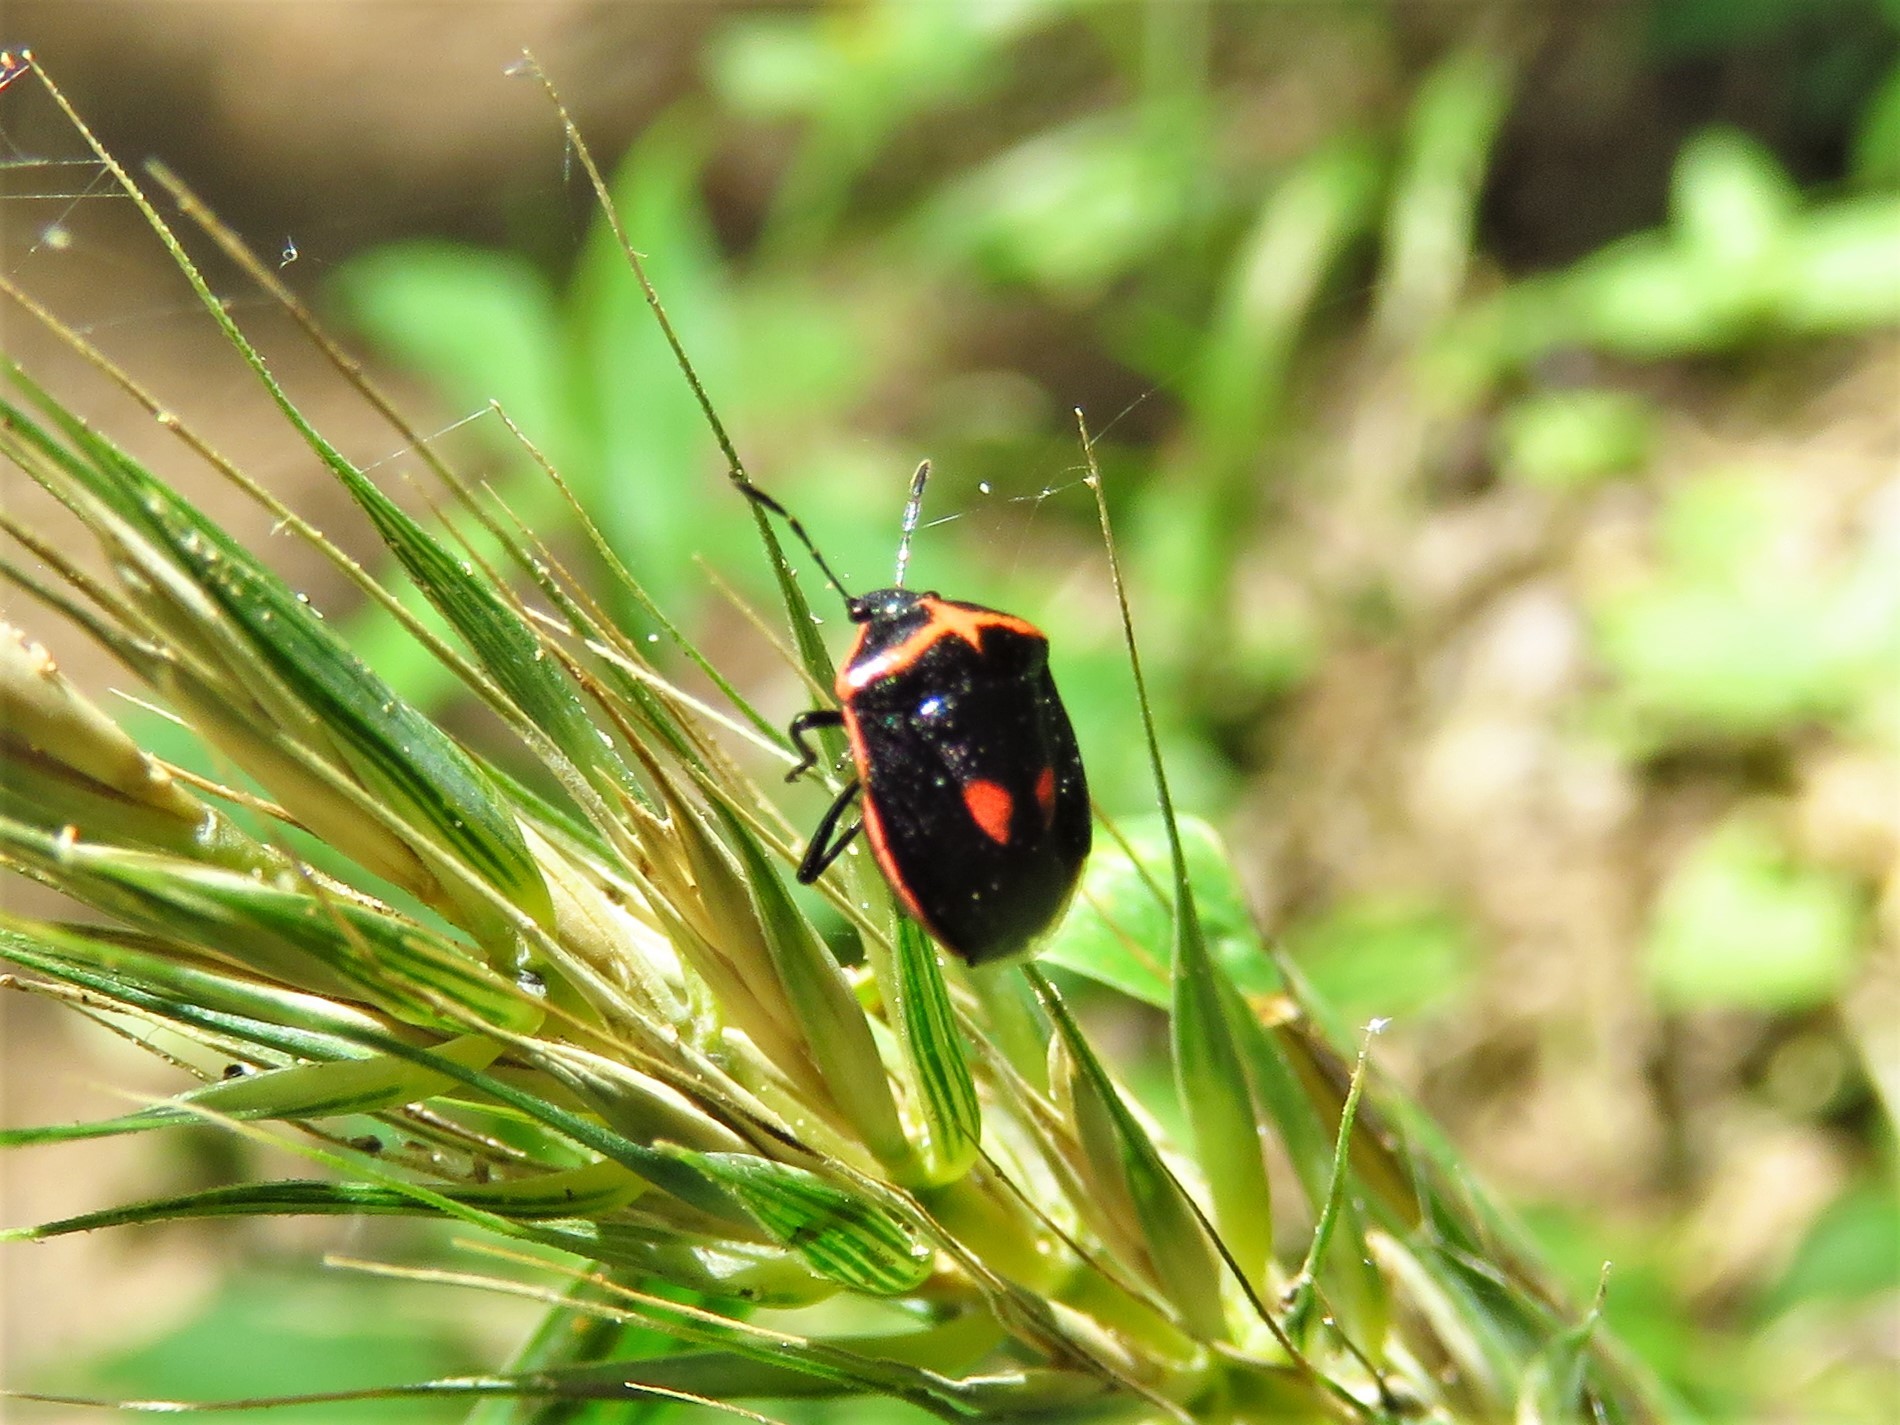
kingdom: Animalia
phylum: Arthropoda
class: Insecta
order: Hemiptera
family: Pentatomidae
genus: Cosmopepla
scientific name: Cosmopepla lintneriana
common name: Twice-stabbed stink bug
